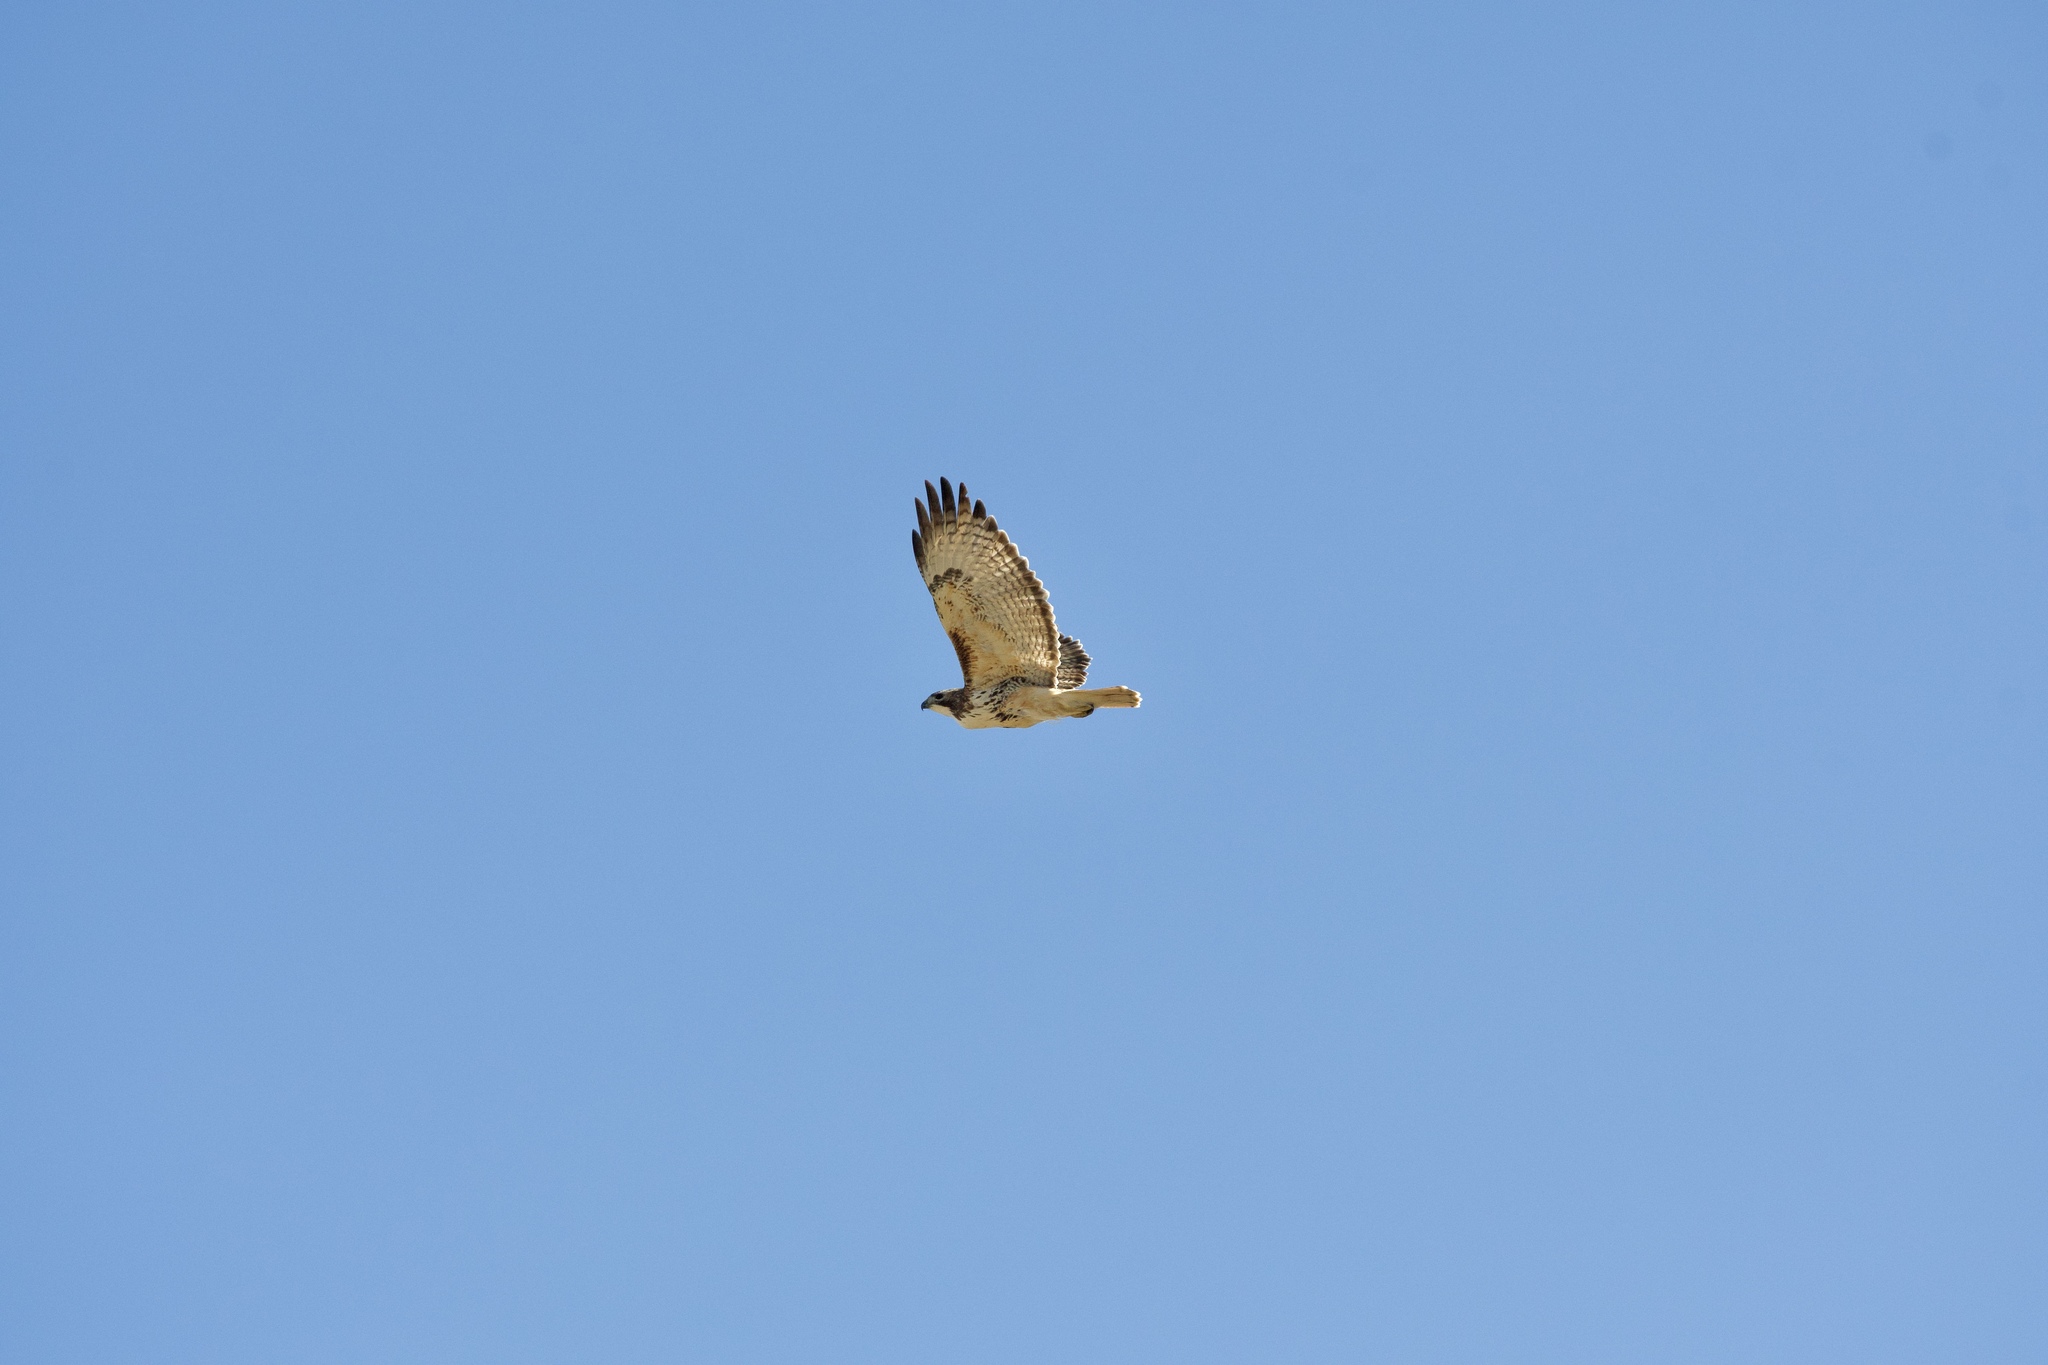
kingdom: Animalia
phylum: Chordata
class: Aves
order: Accipitriformes
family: Accipitridae
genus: Buteo
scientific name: Buteo jamaicensis
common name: Red-tailed hawk
